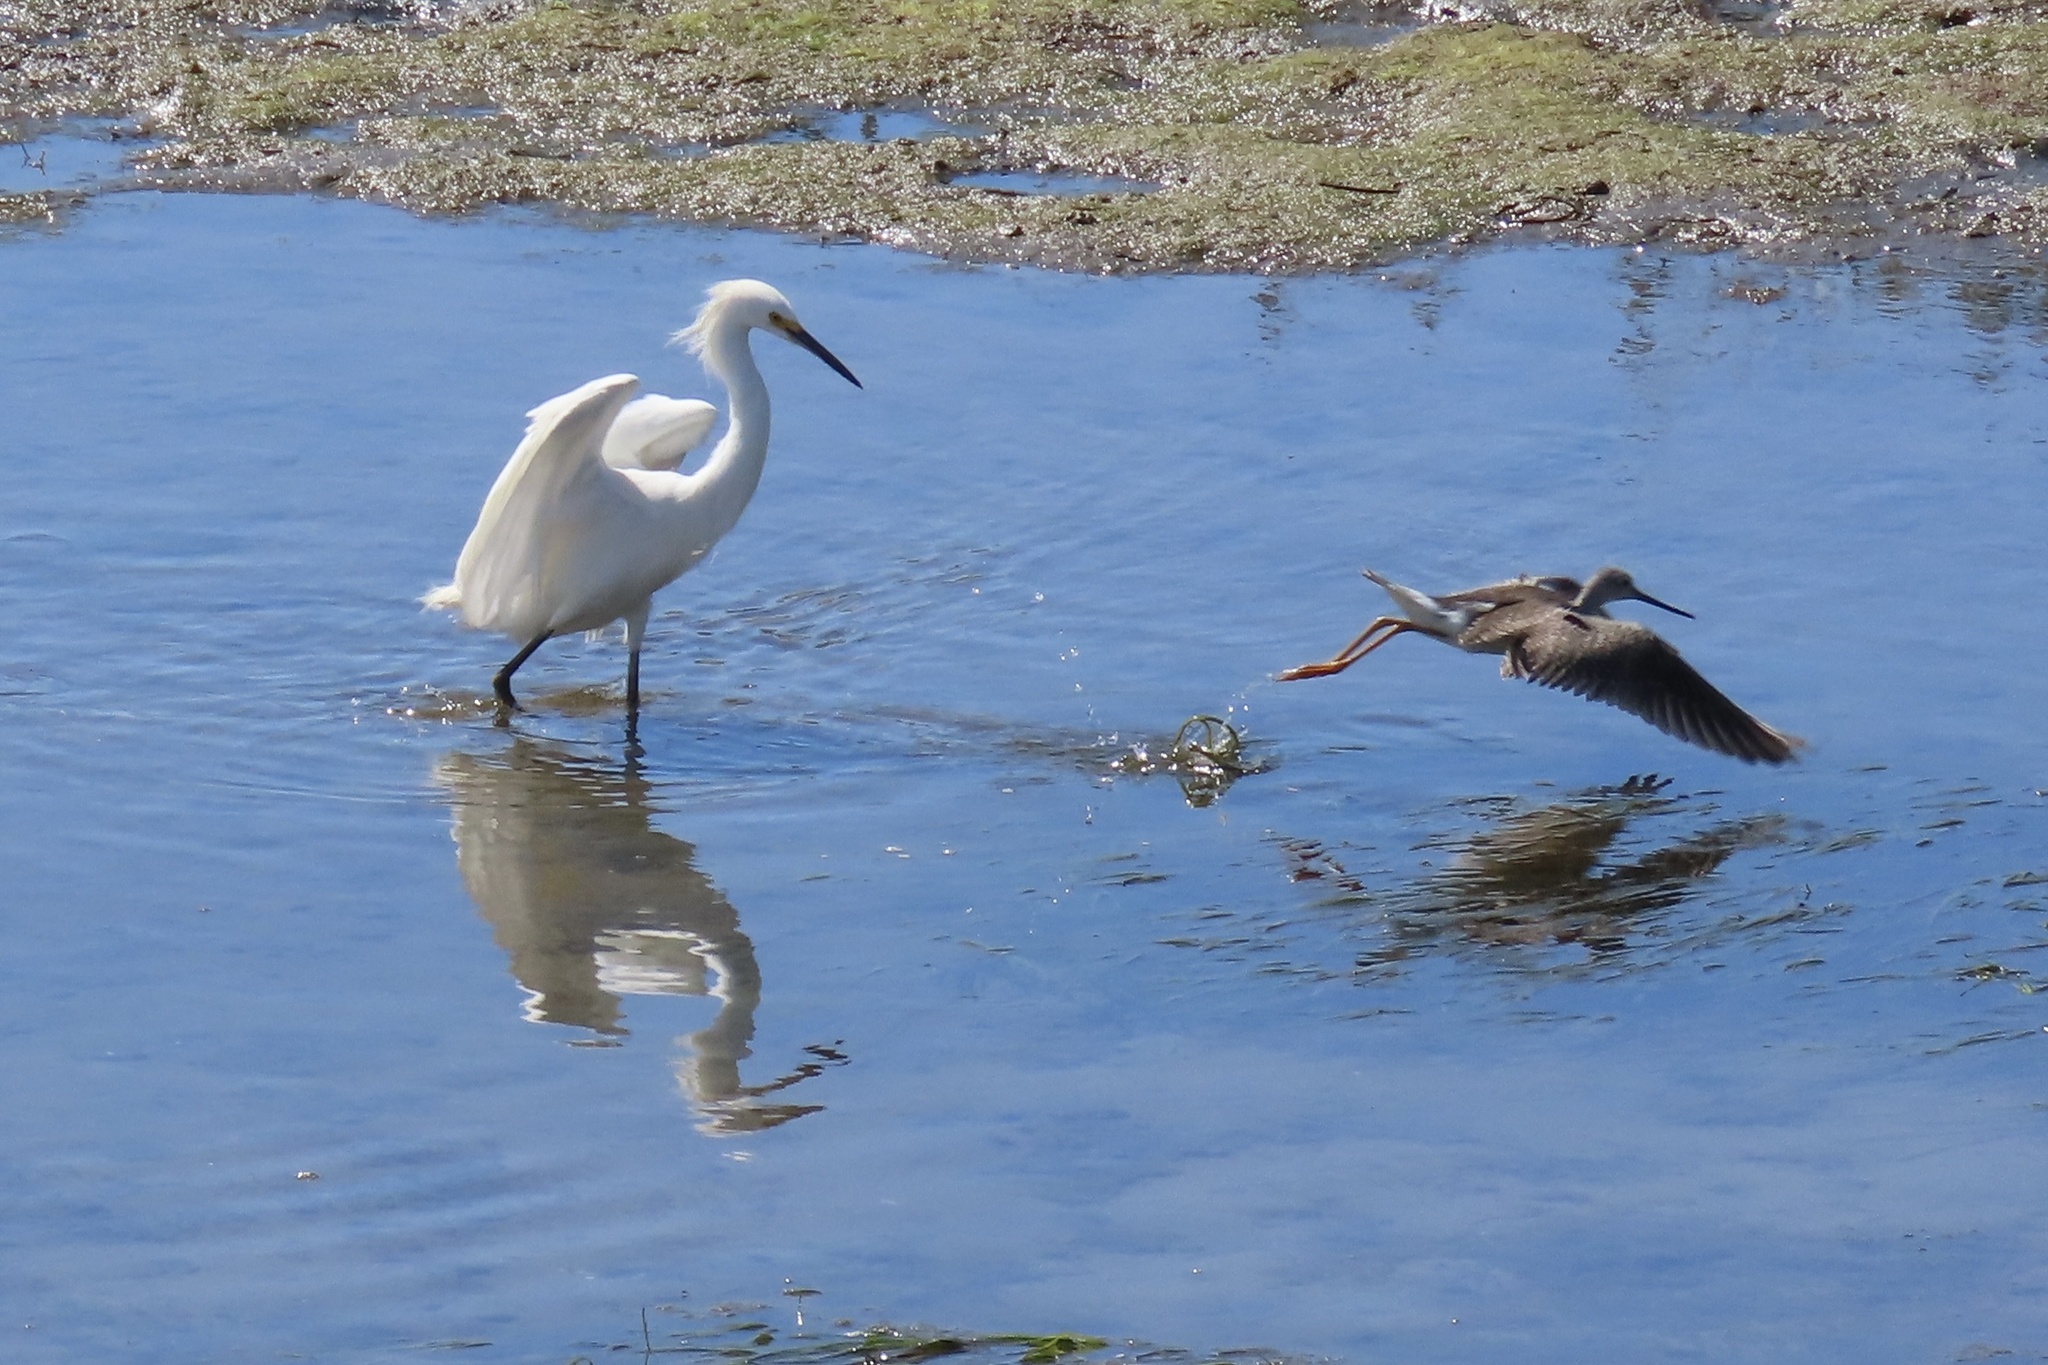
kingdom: Animalia
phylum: Chordata
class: Aves
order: Charadriiformes
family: Scolopacidae
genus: Tringa
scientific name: Tringa melanoleuca
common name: Greater yellowlegs
